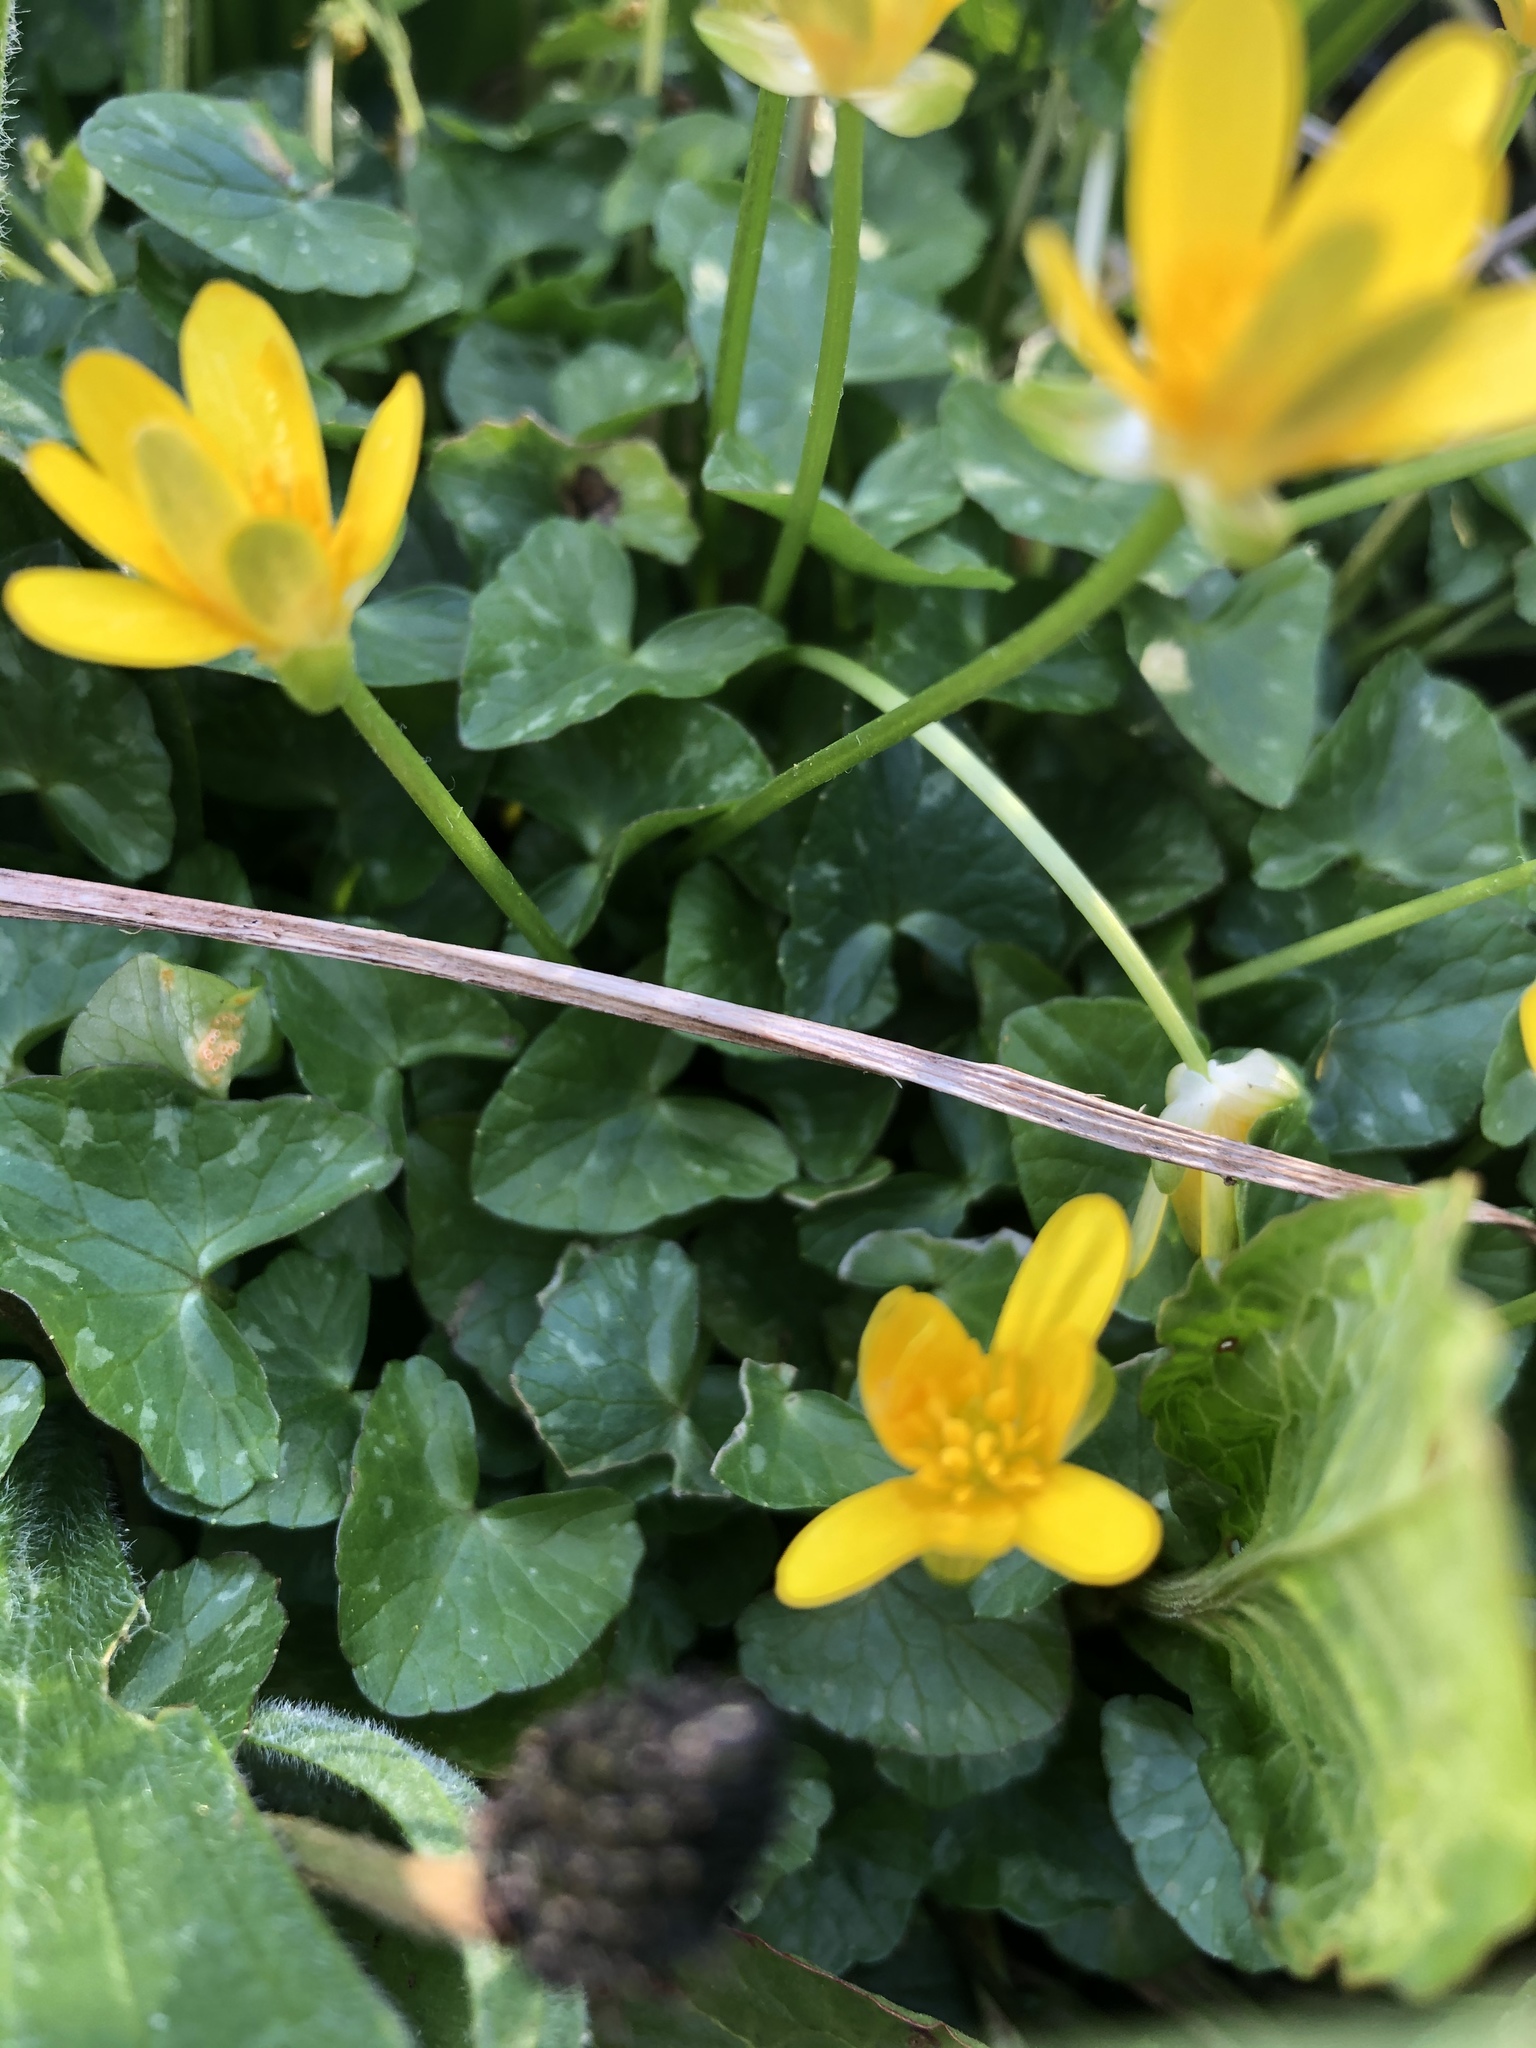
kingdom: Plantae
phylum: Tracheophyta
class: Magnoliopsida
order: Ranunculales
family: Ranunculaceae
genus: Ficaria
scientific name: Ficaria verna
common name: Lesser celandine
